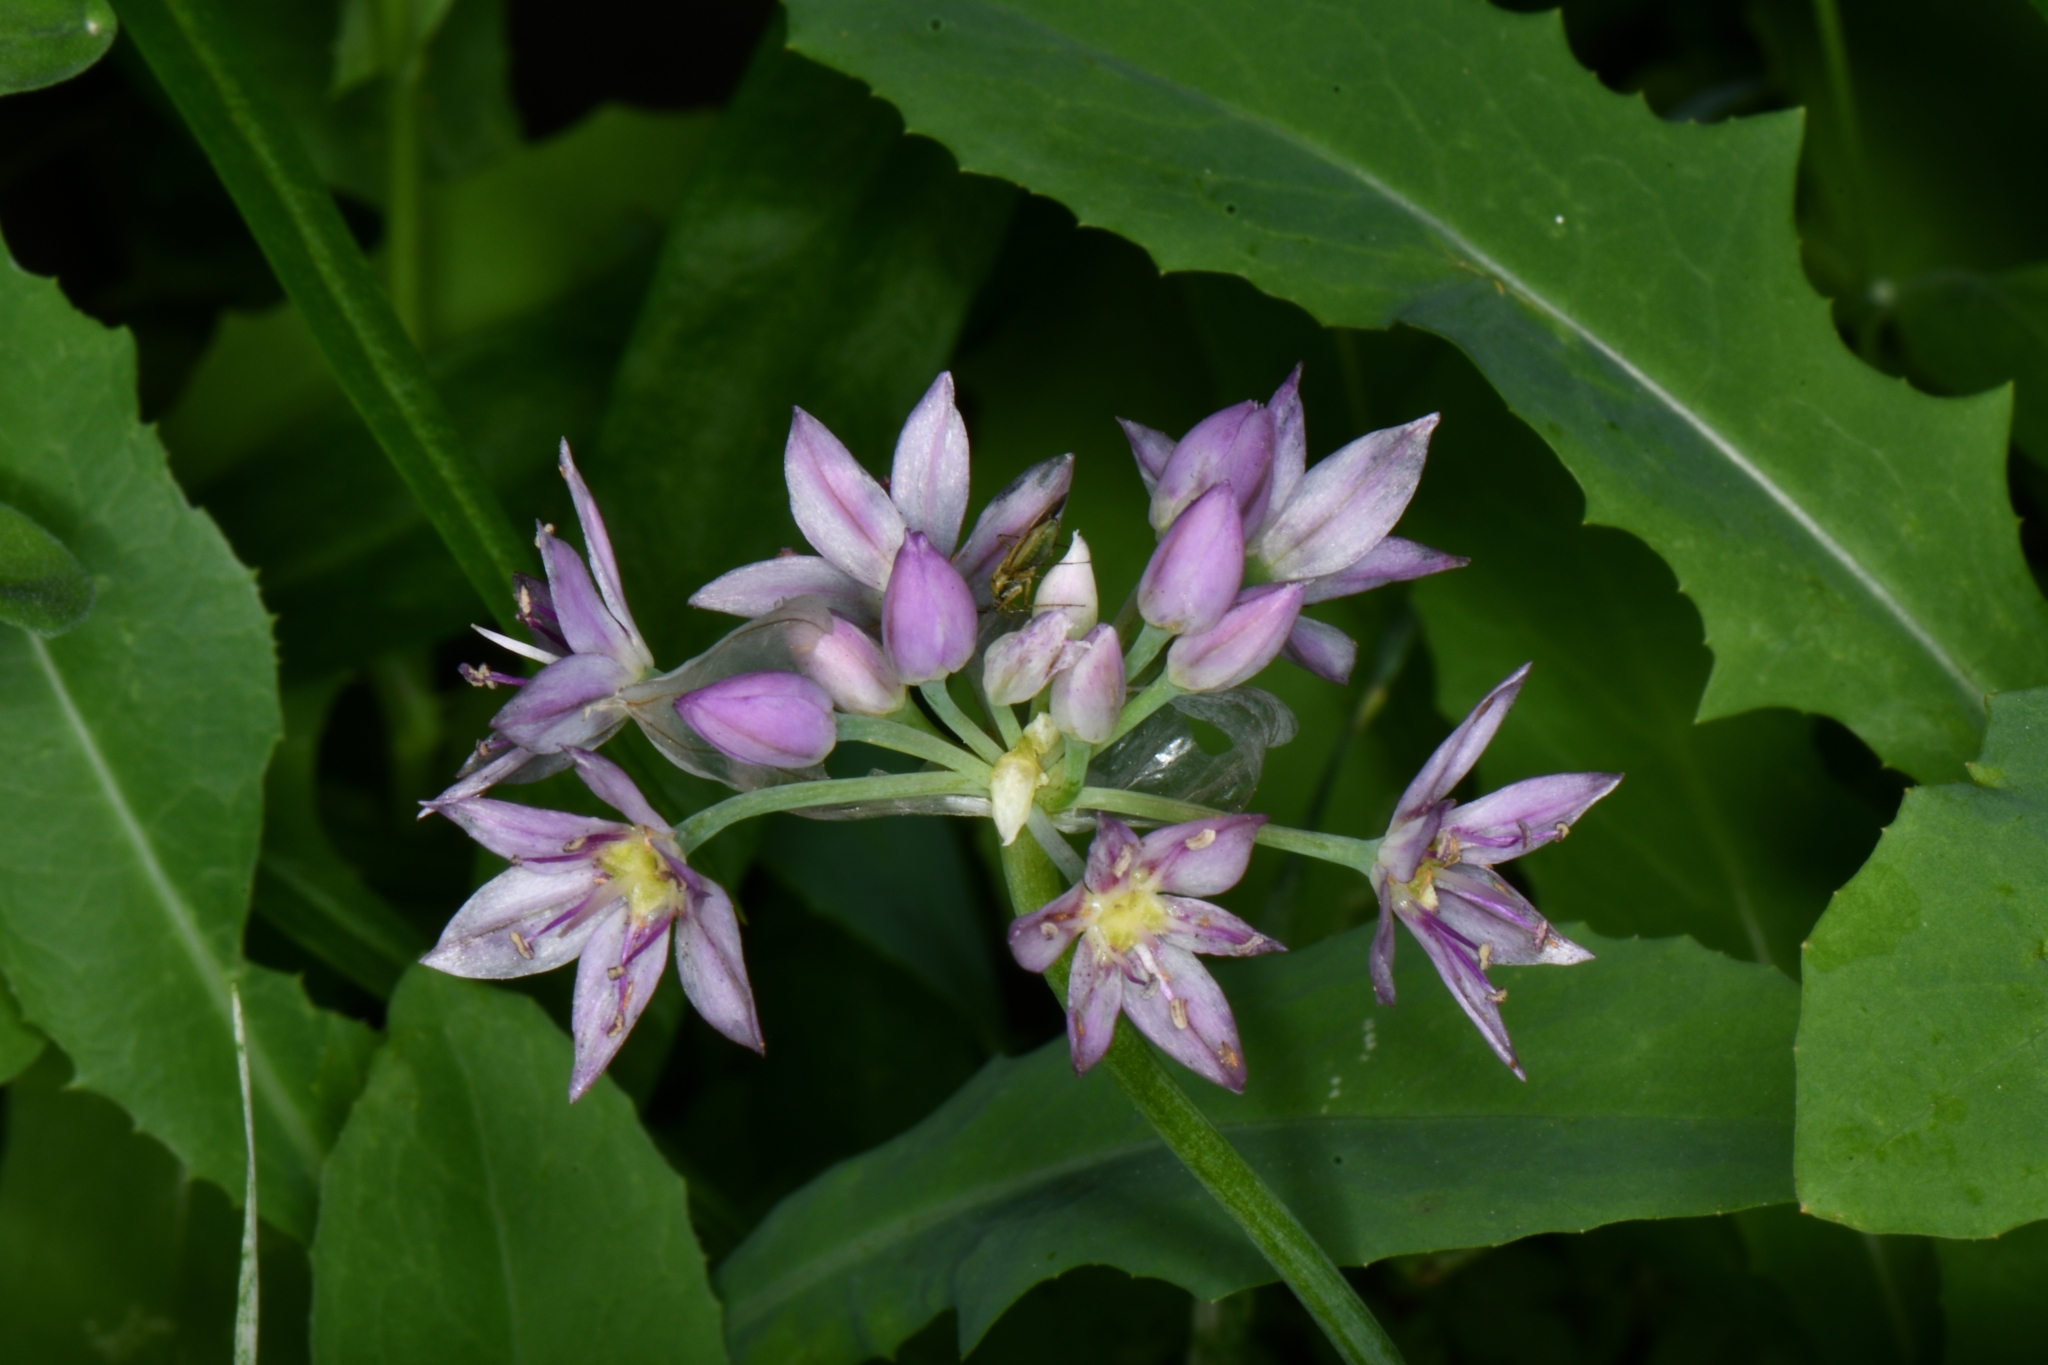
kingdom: Plantae
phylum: Tracheophyta
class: Liliopsida
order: Asparagales
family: Amaryllidaceae
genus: Allium
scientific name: Allium bisceptrum
